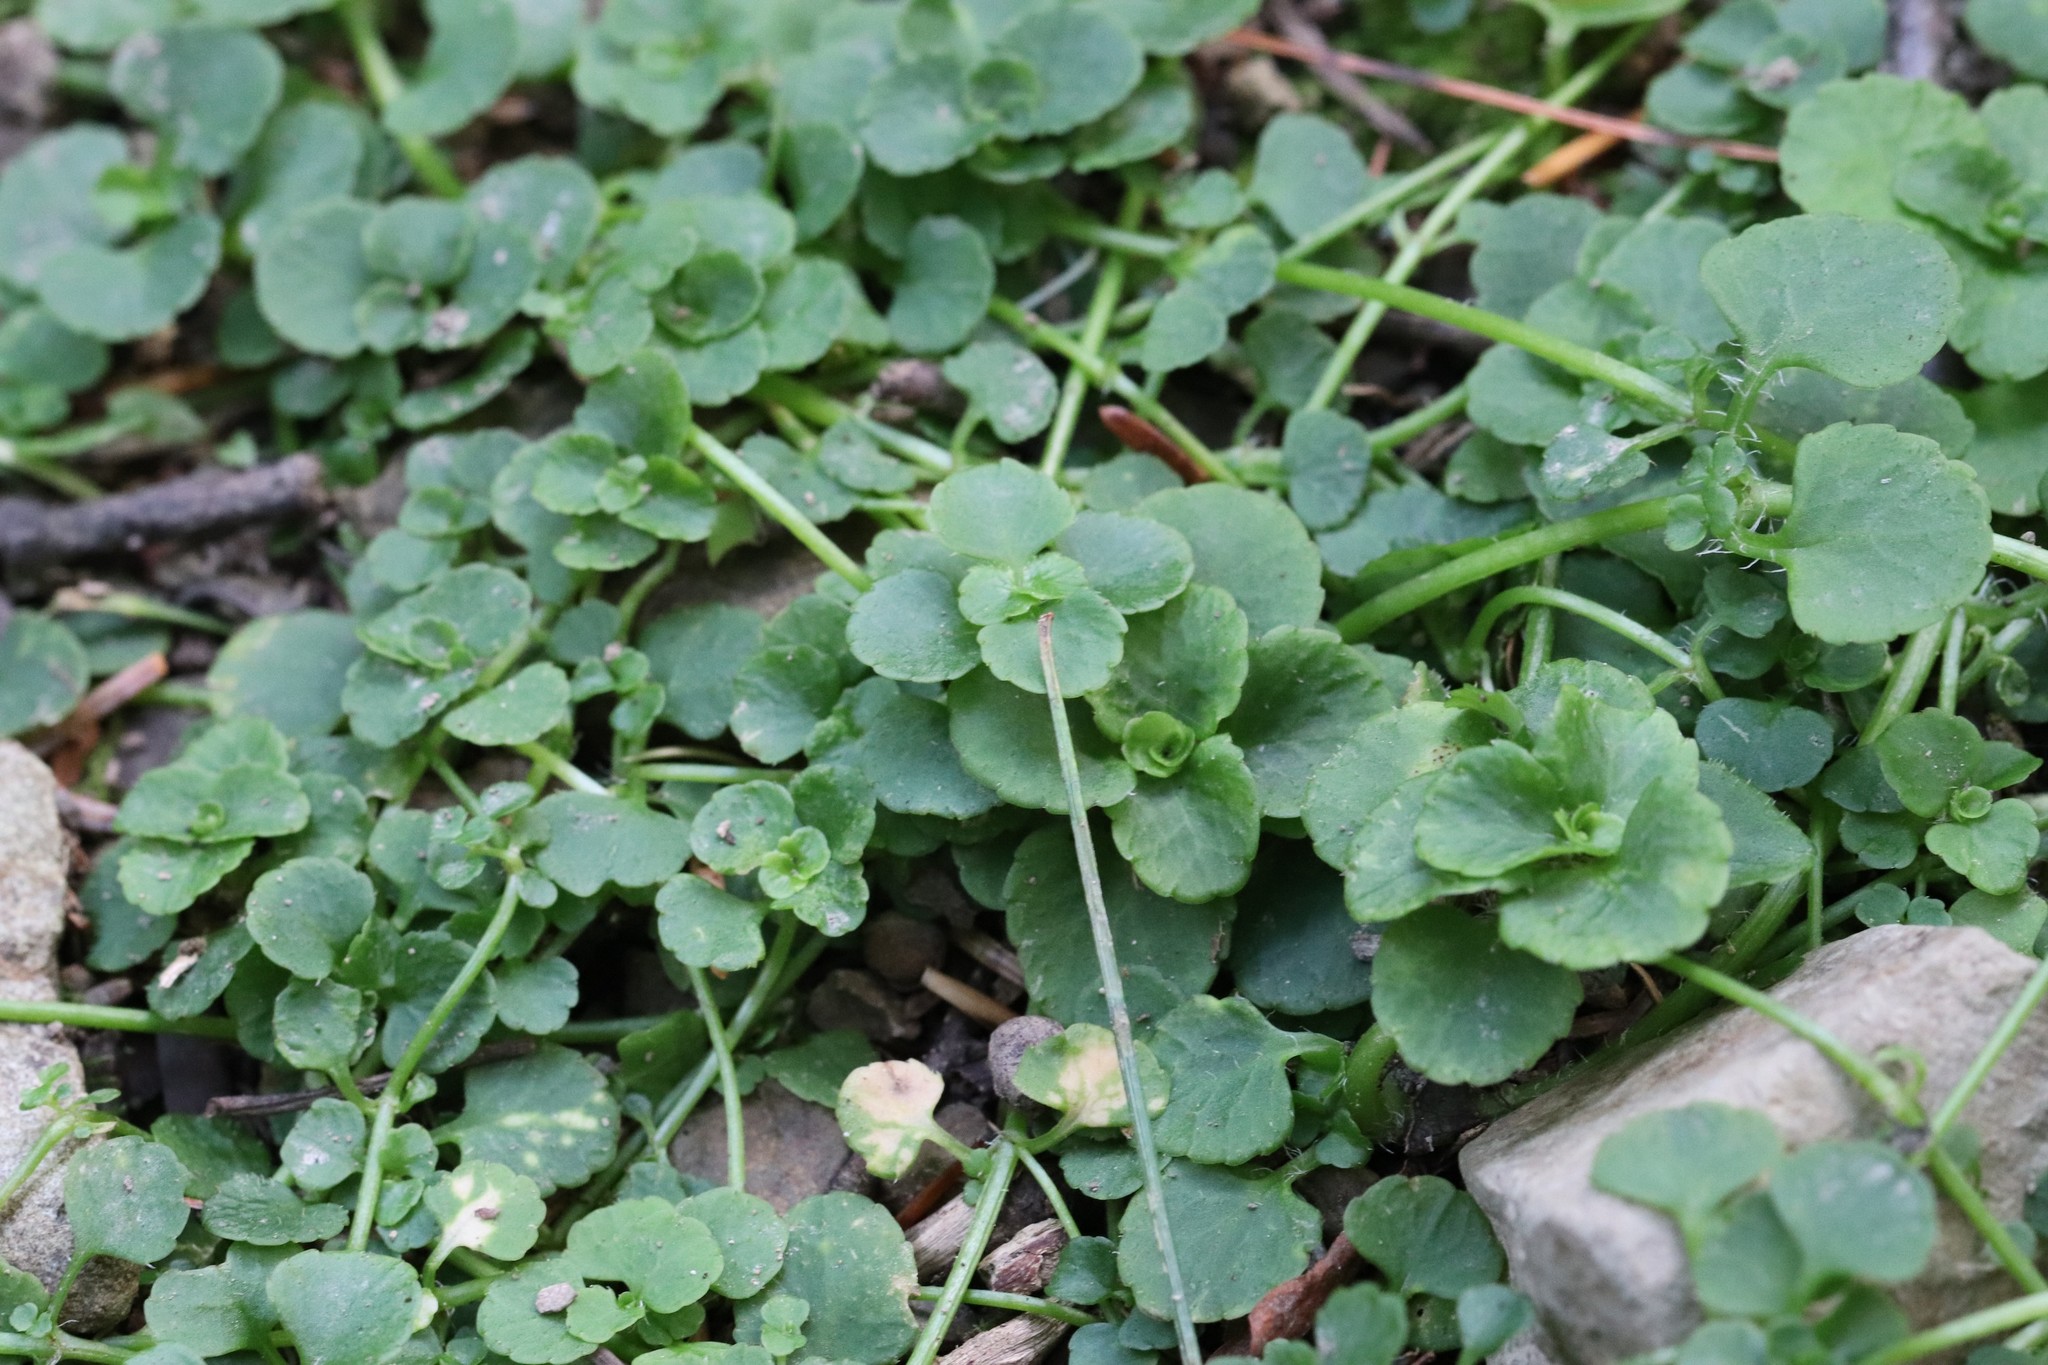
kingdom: Plantae
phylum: Tracheophyta
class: Magnoliopsida
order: Saxifragales
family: Saxifragaceae
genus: Chrysosplenium
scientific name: Chrysosplenium ramosum
